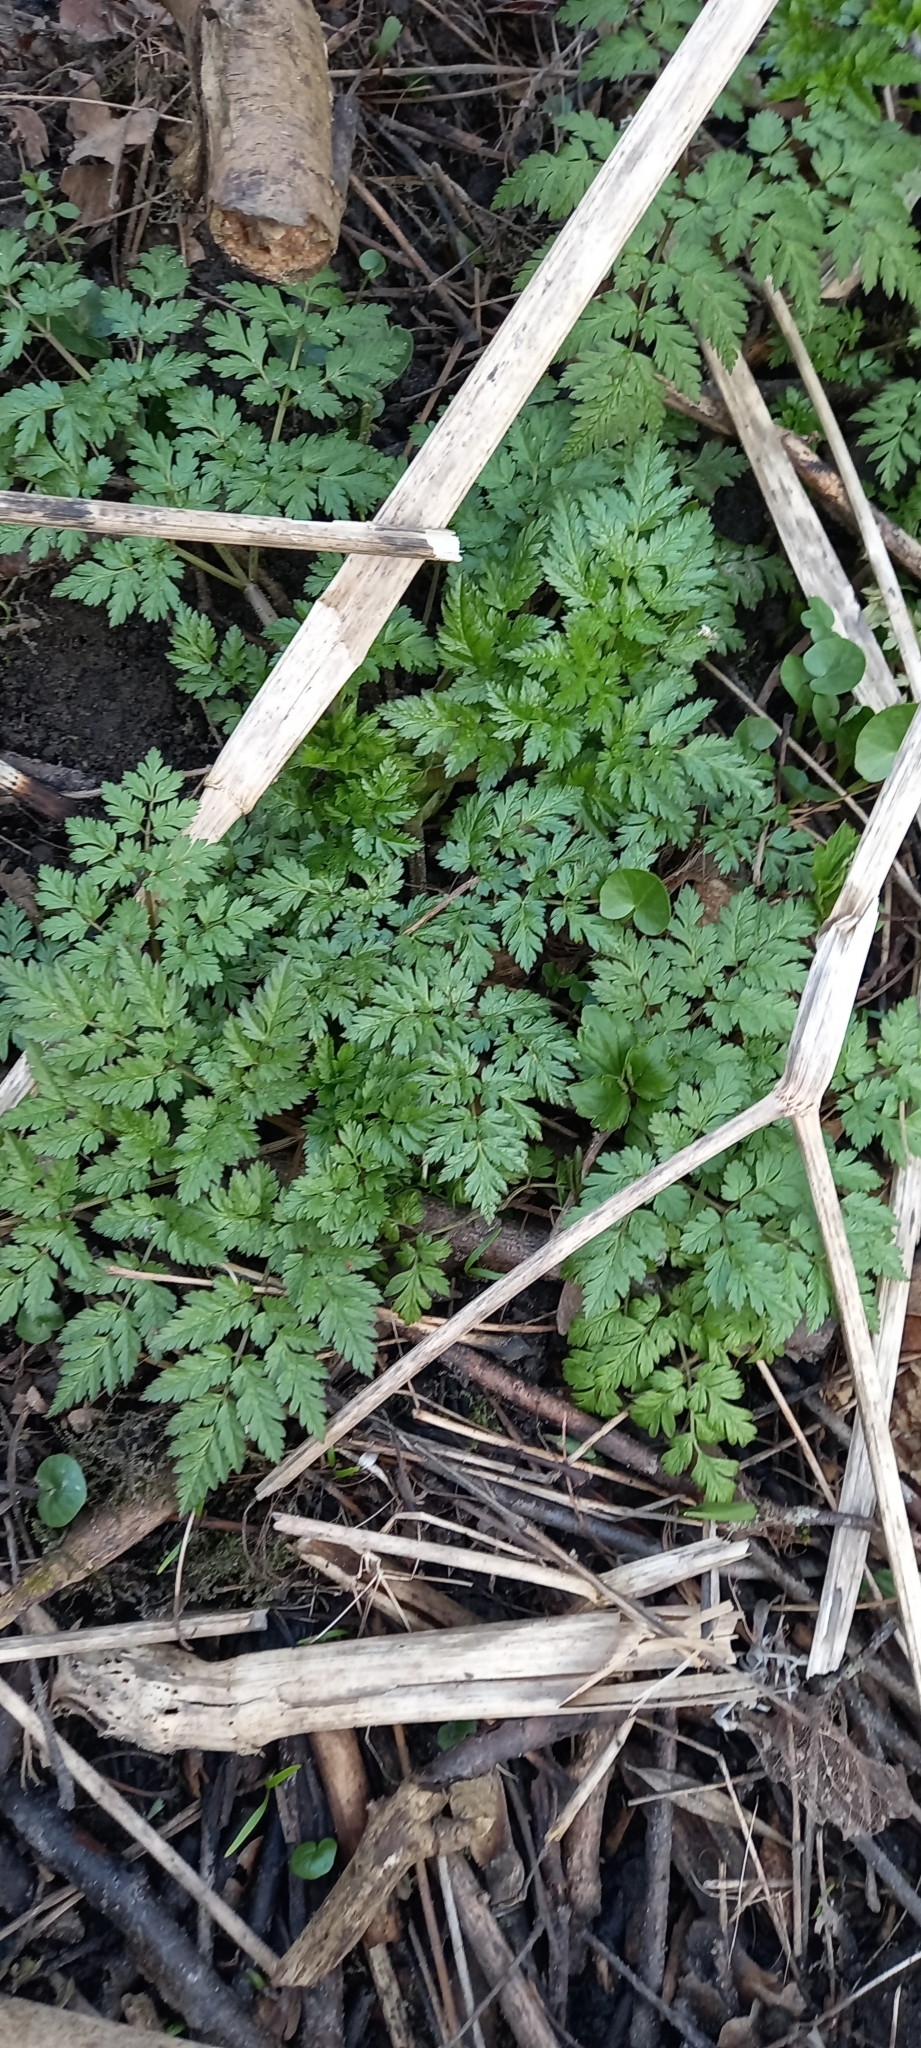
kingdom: Plantae
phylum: Tracheophyta
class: Magnoliopsida
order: Apiales
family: Apiaceae
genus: Anthriscus
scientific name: Anthriscus sylvestris
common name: Cow parsley
